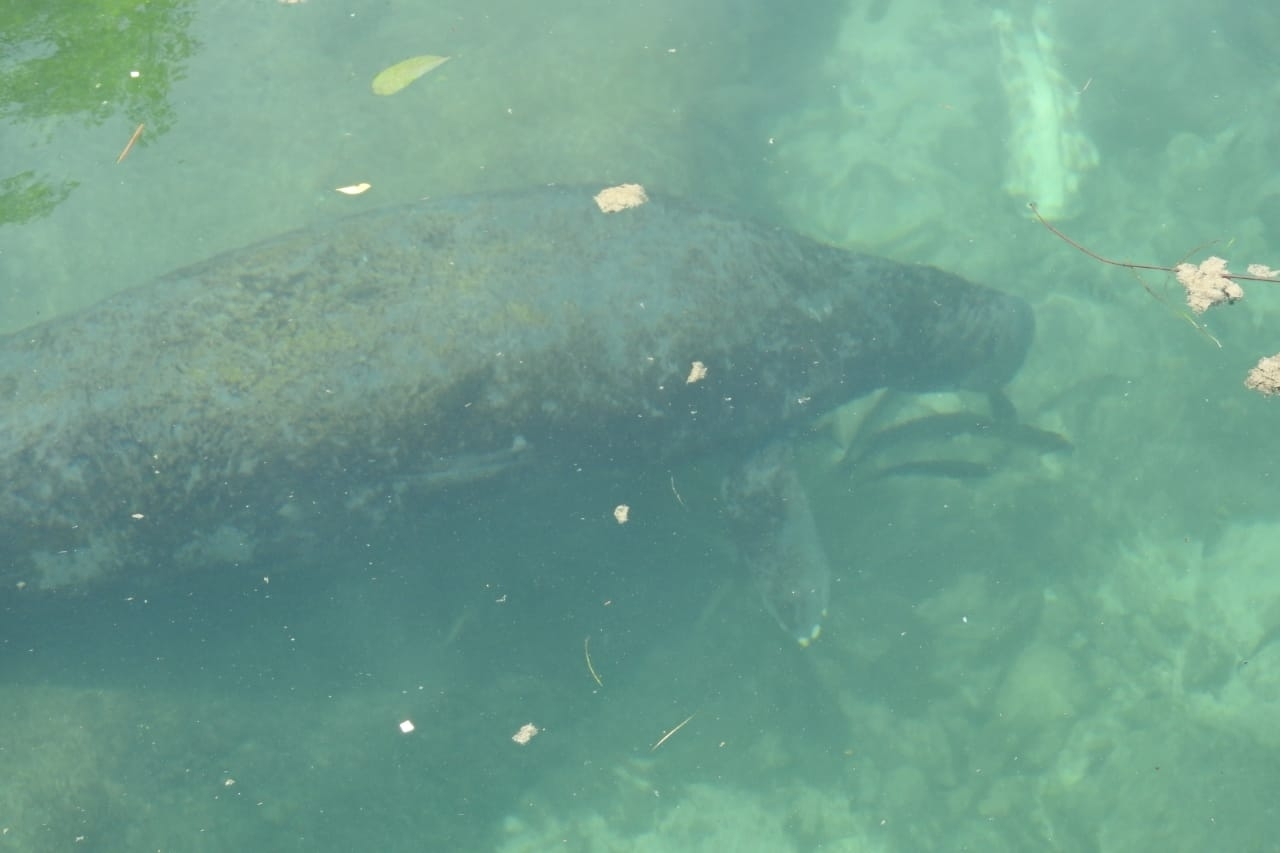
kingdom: Animalia
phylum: Chordata
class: Mammalia
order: Sirenia
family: Trichechidae
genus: Trichechus
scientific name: Trichechus manatus
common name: West indian manatee
